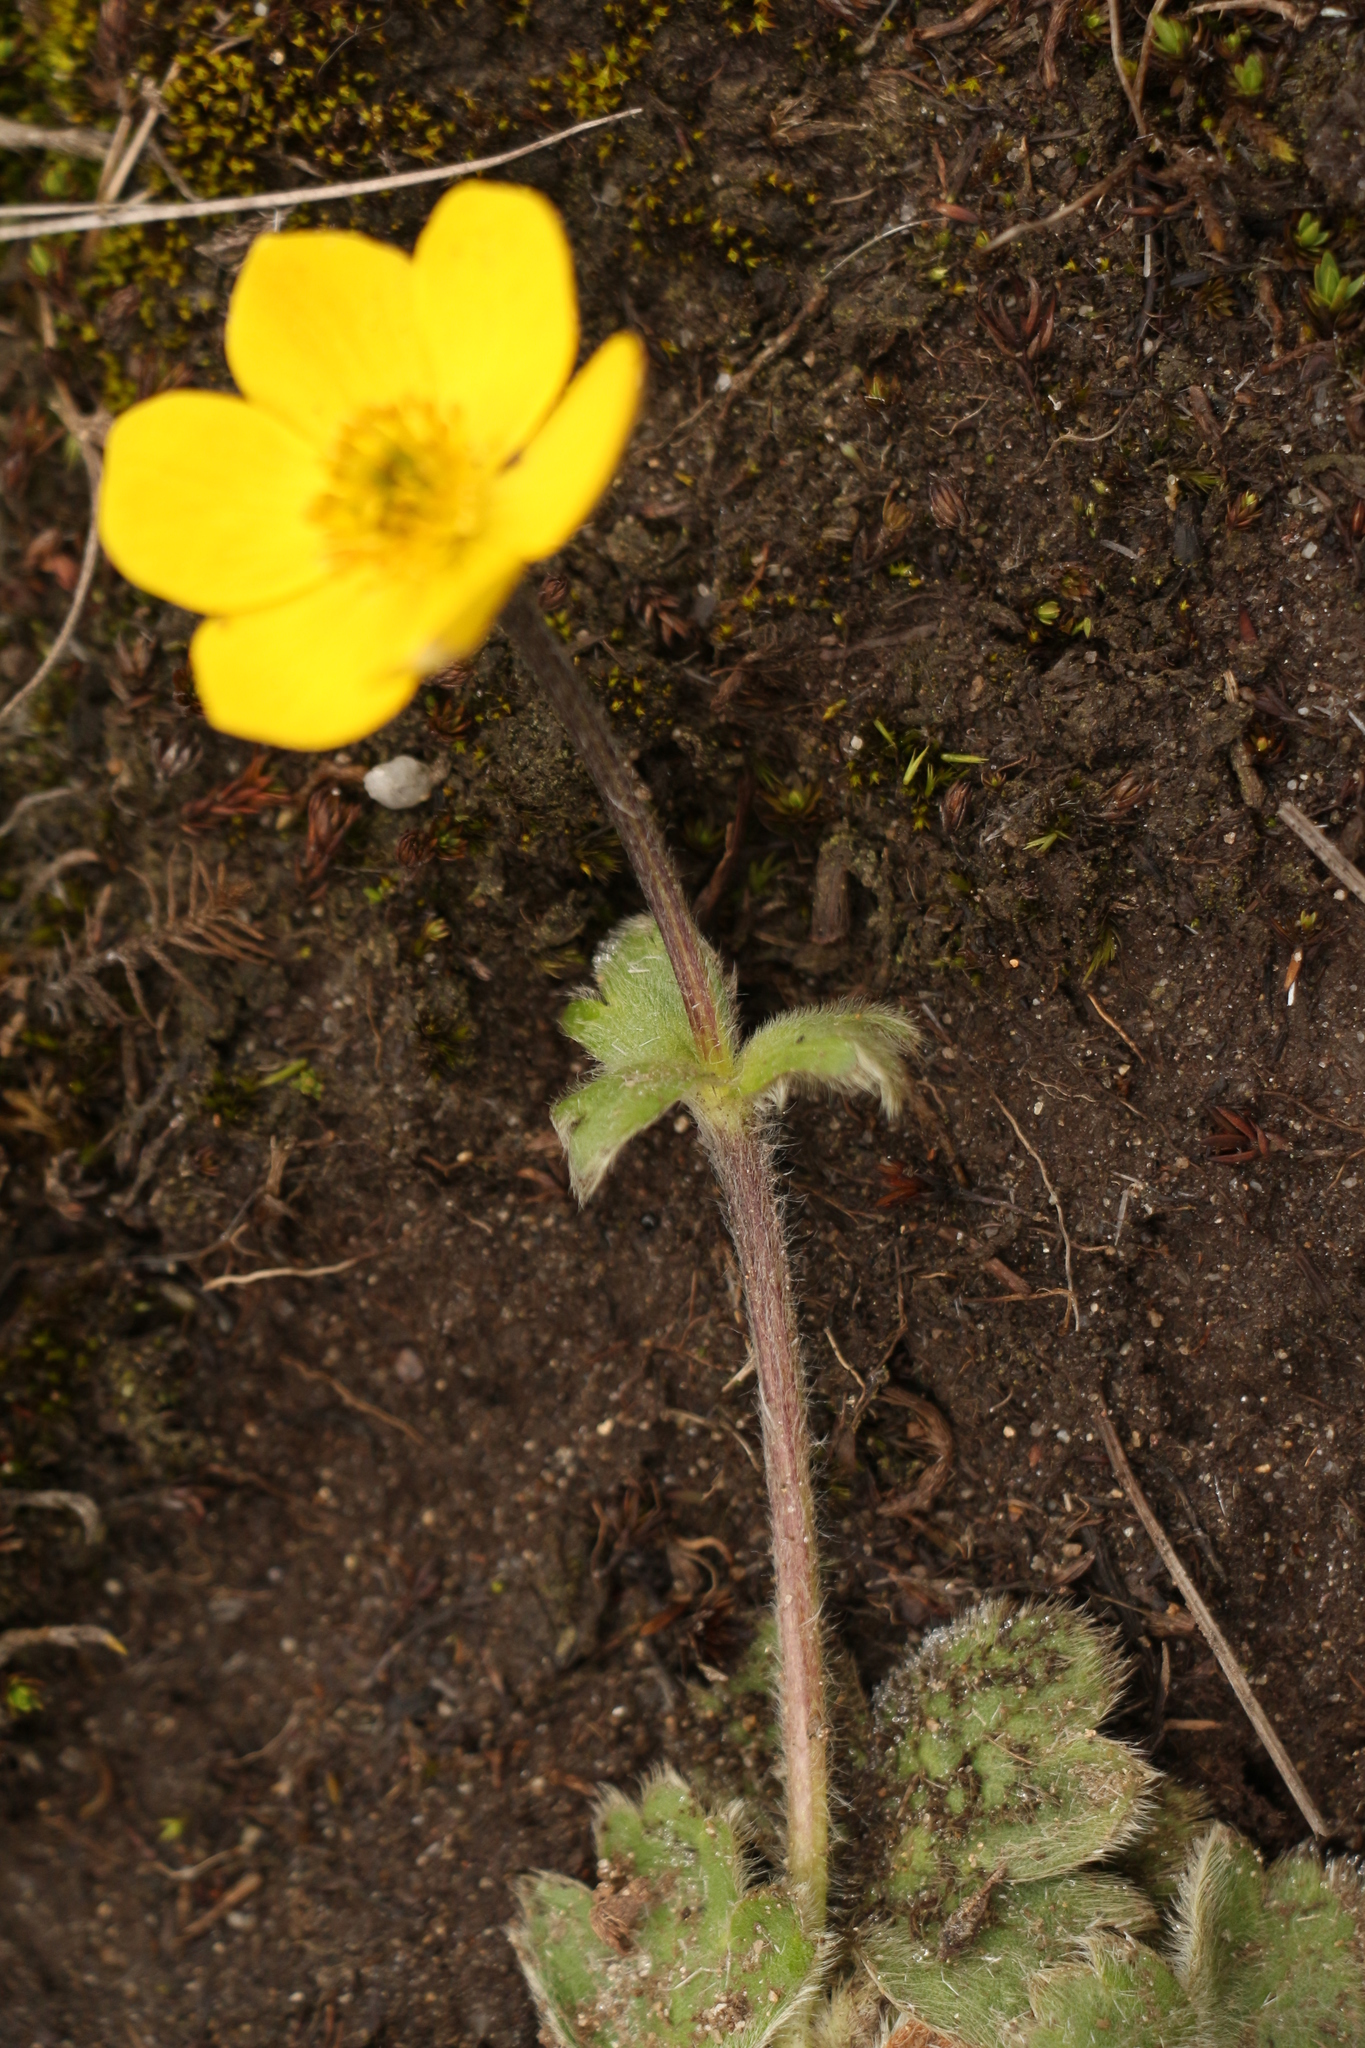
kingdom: Plantae
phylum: Tracheophyta
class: Magnoliopsida
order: Ranunculales
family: Ranunculaceae
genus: Anemonastrum
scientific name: Anemonastrum obtusilobum
